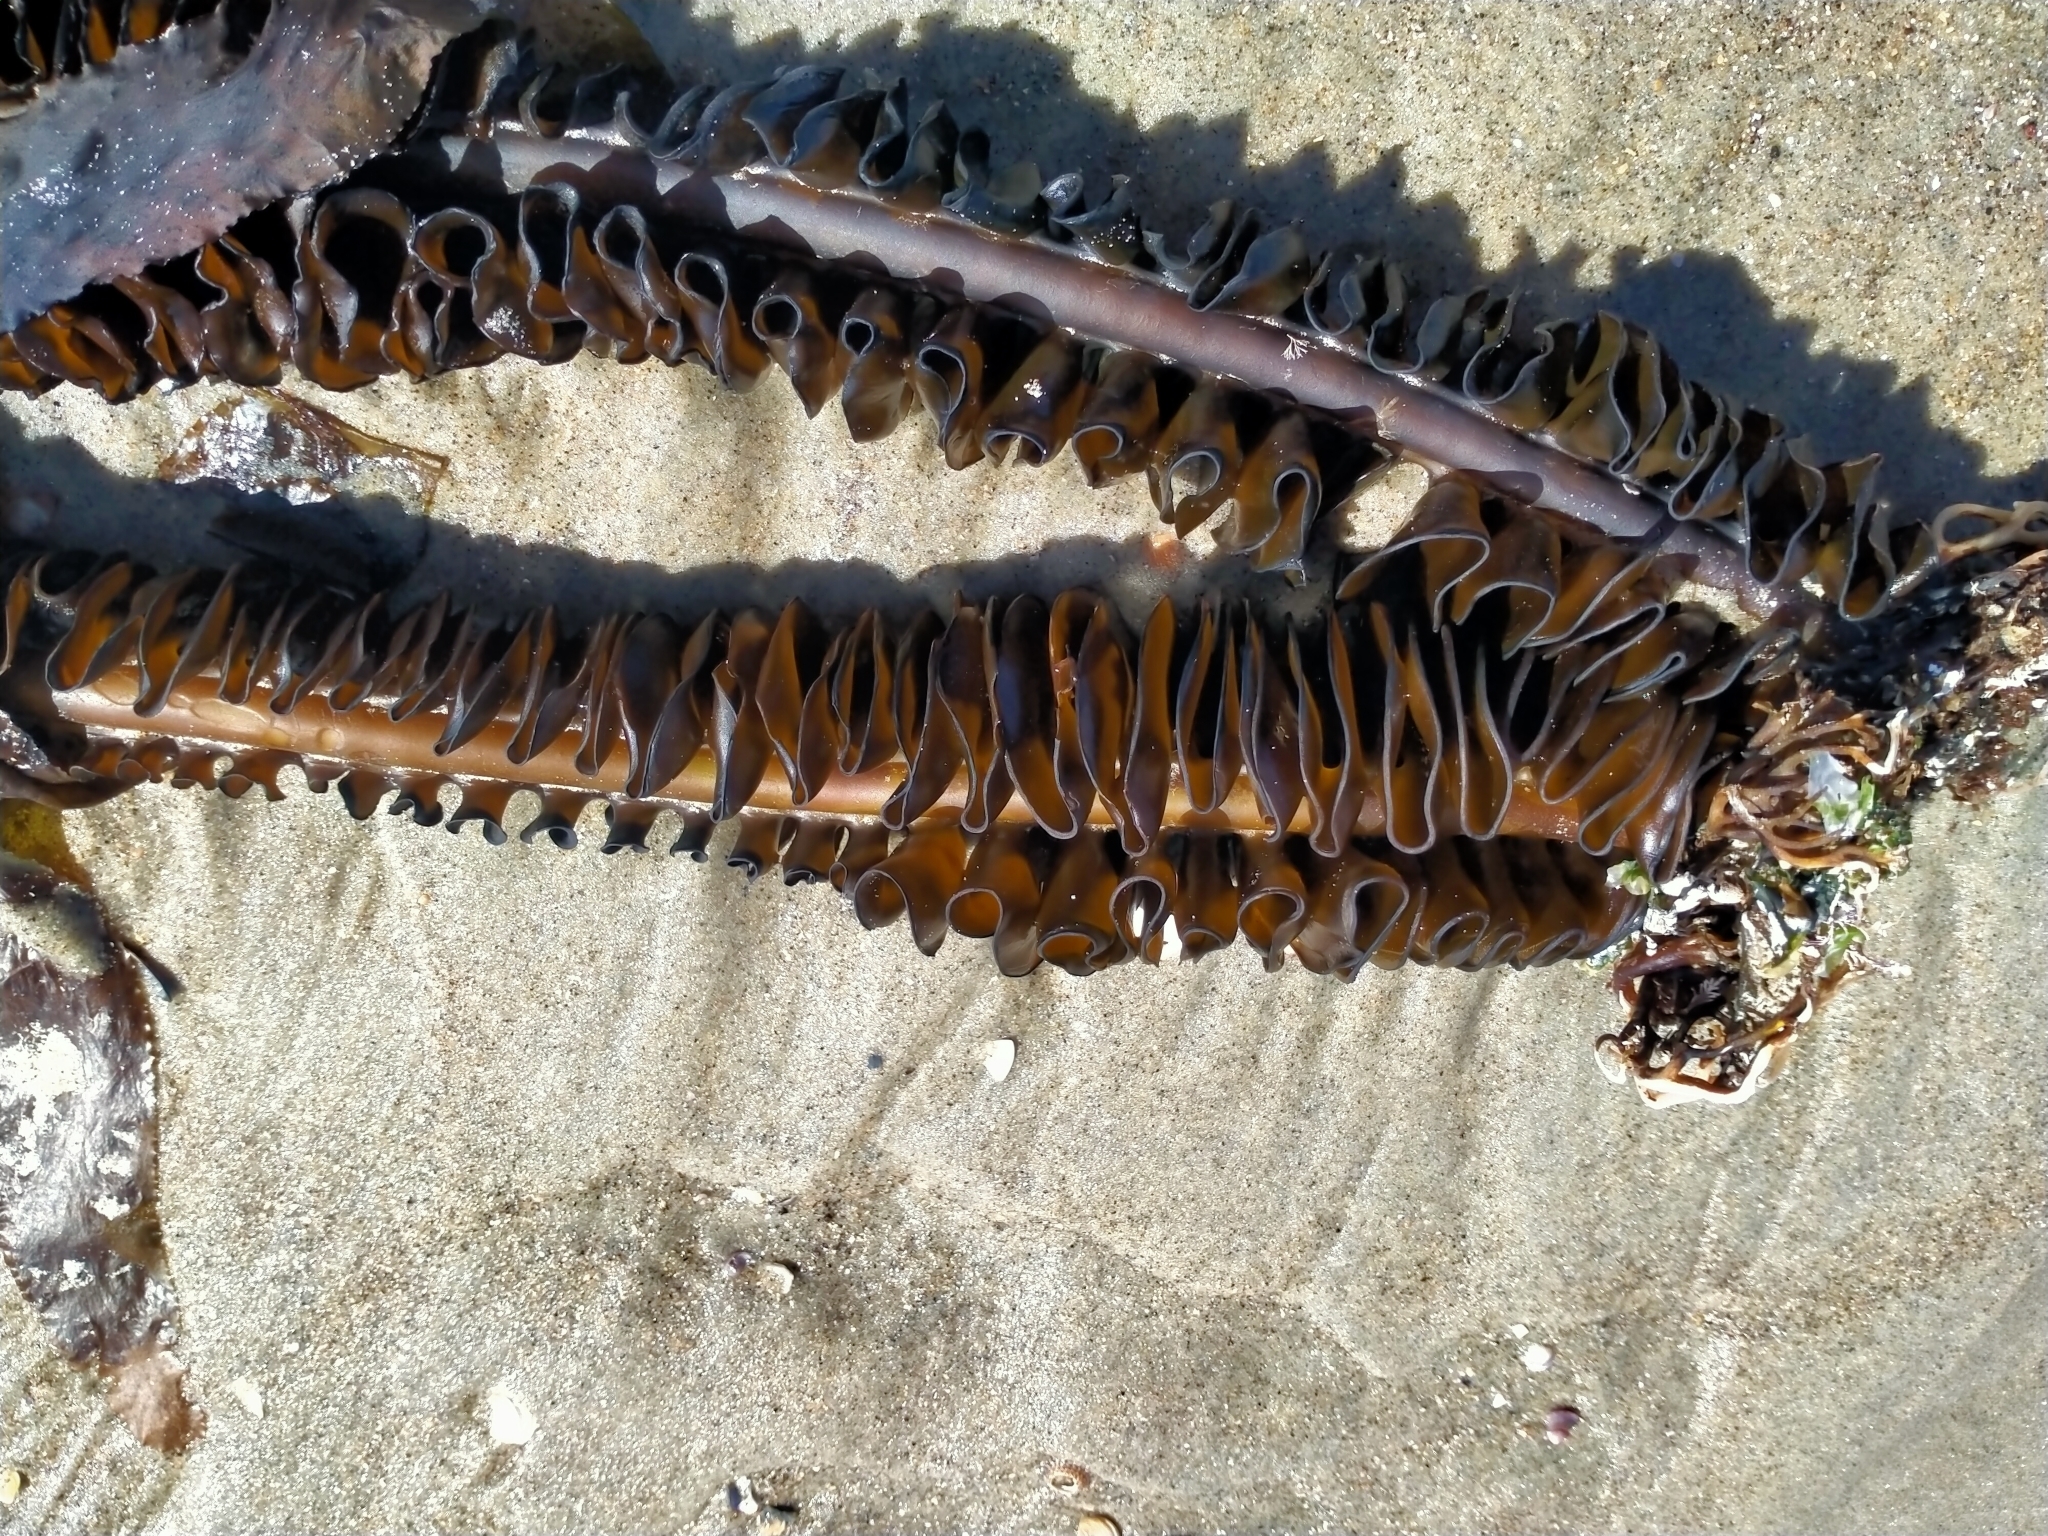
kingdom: Chromista
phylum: Ochrophyta
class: Phaeophyceae
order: Laminariales
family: Alariaceae
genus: Undaria
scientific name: Undaria pinnatifida
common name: Asian kelp
